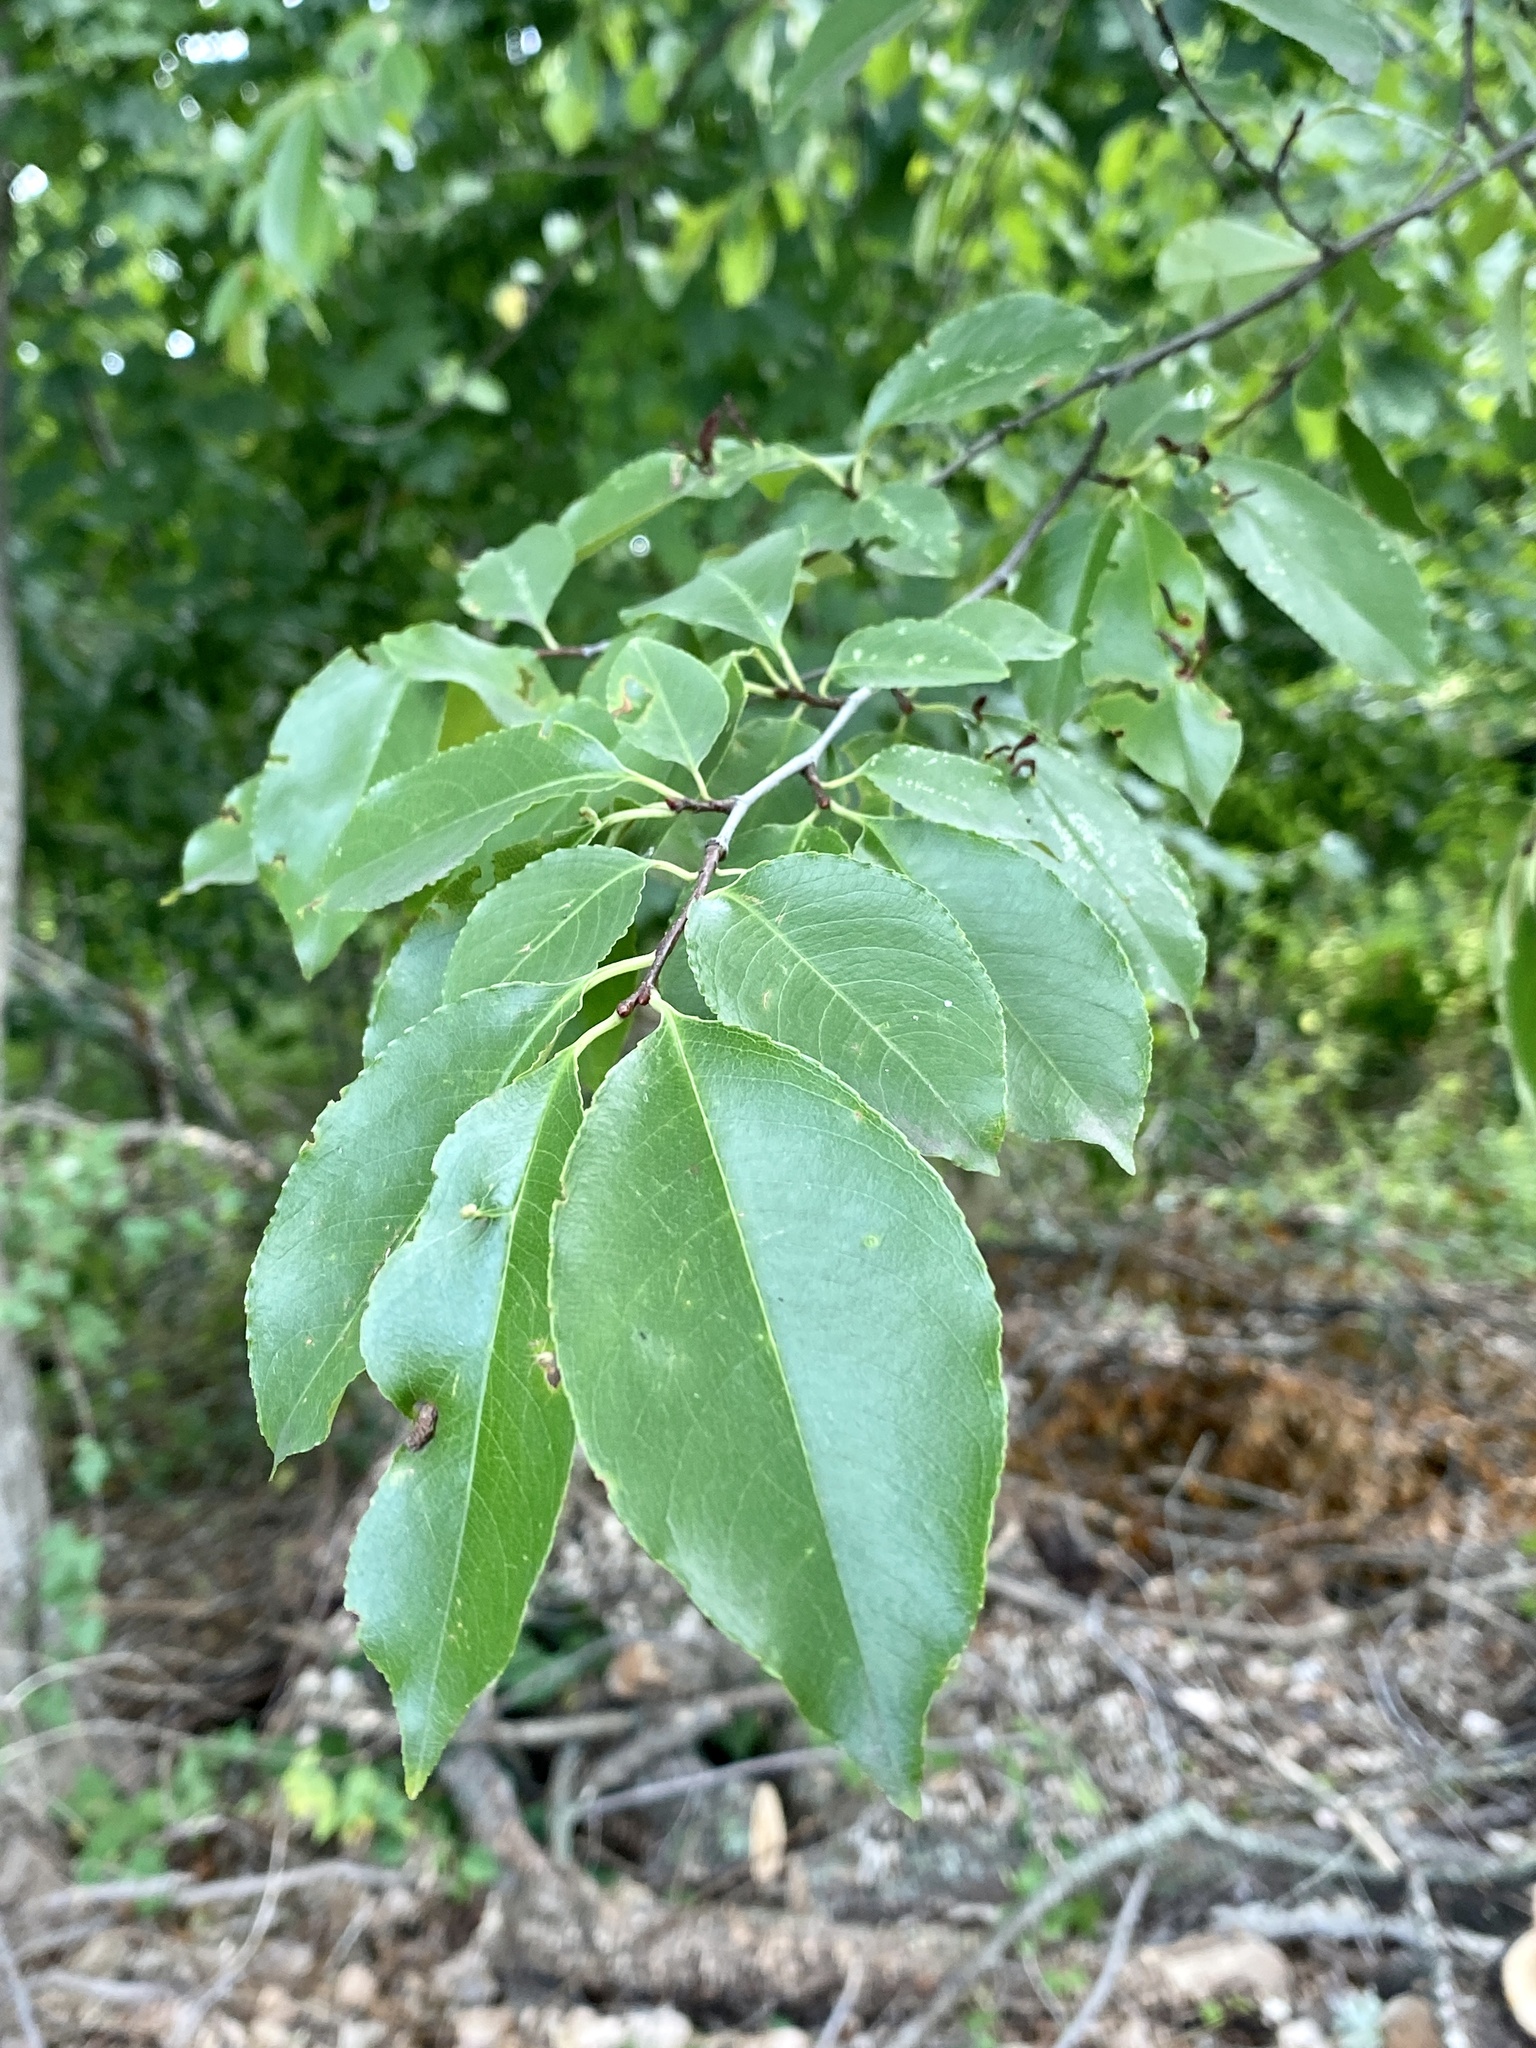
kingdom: Plantae
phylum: Tracheophyta
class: Magnoliopsida
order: Rosales
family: Rosaceae
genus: Prunus
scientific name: Prunus serotina
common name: Black cherry
